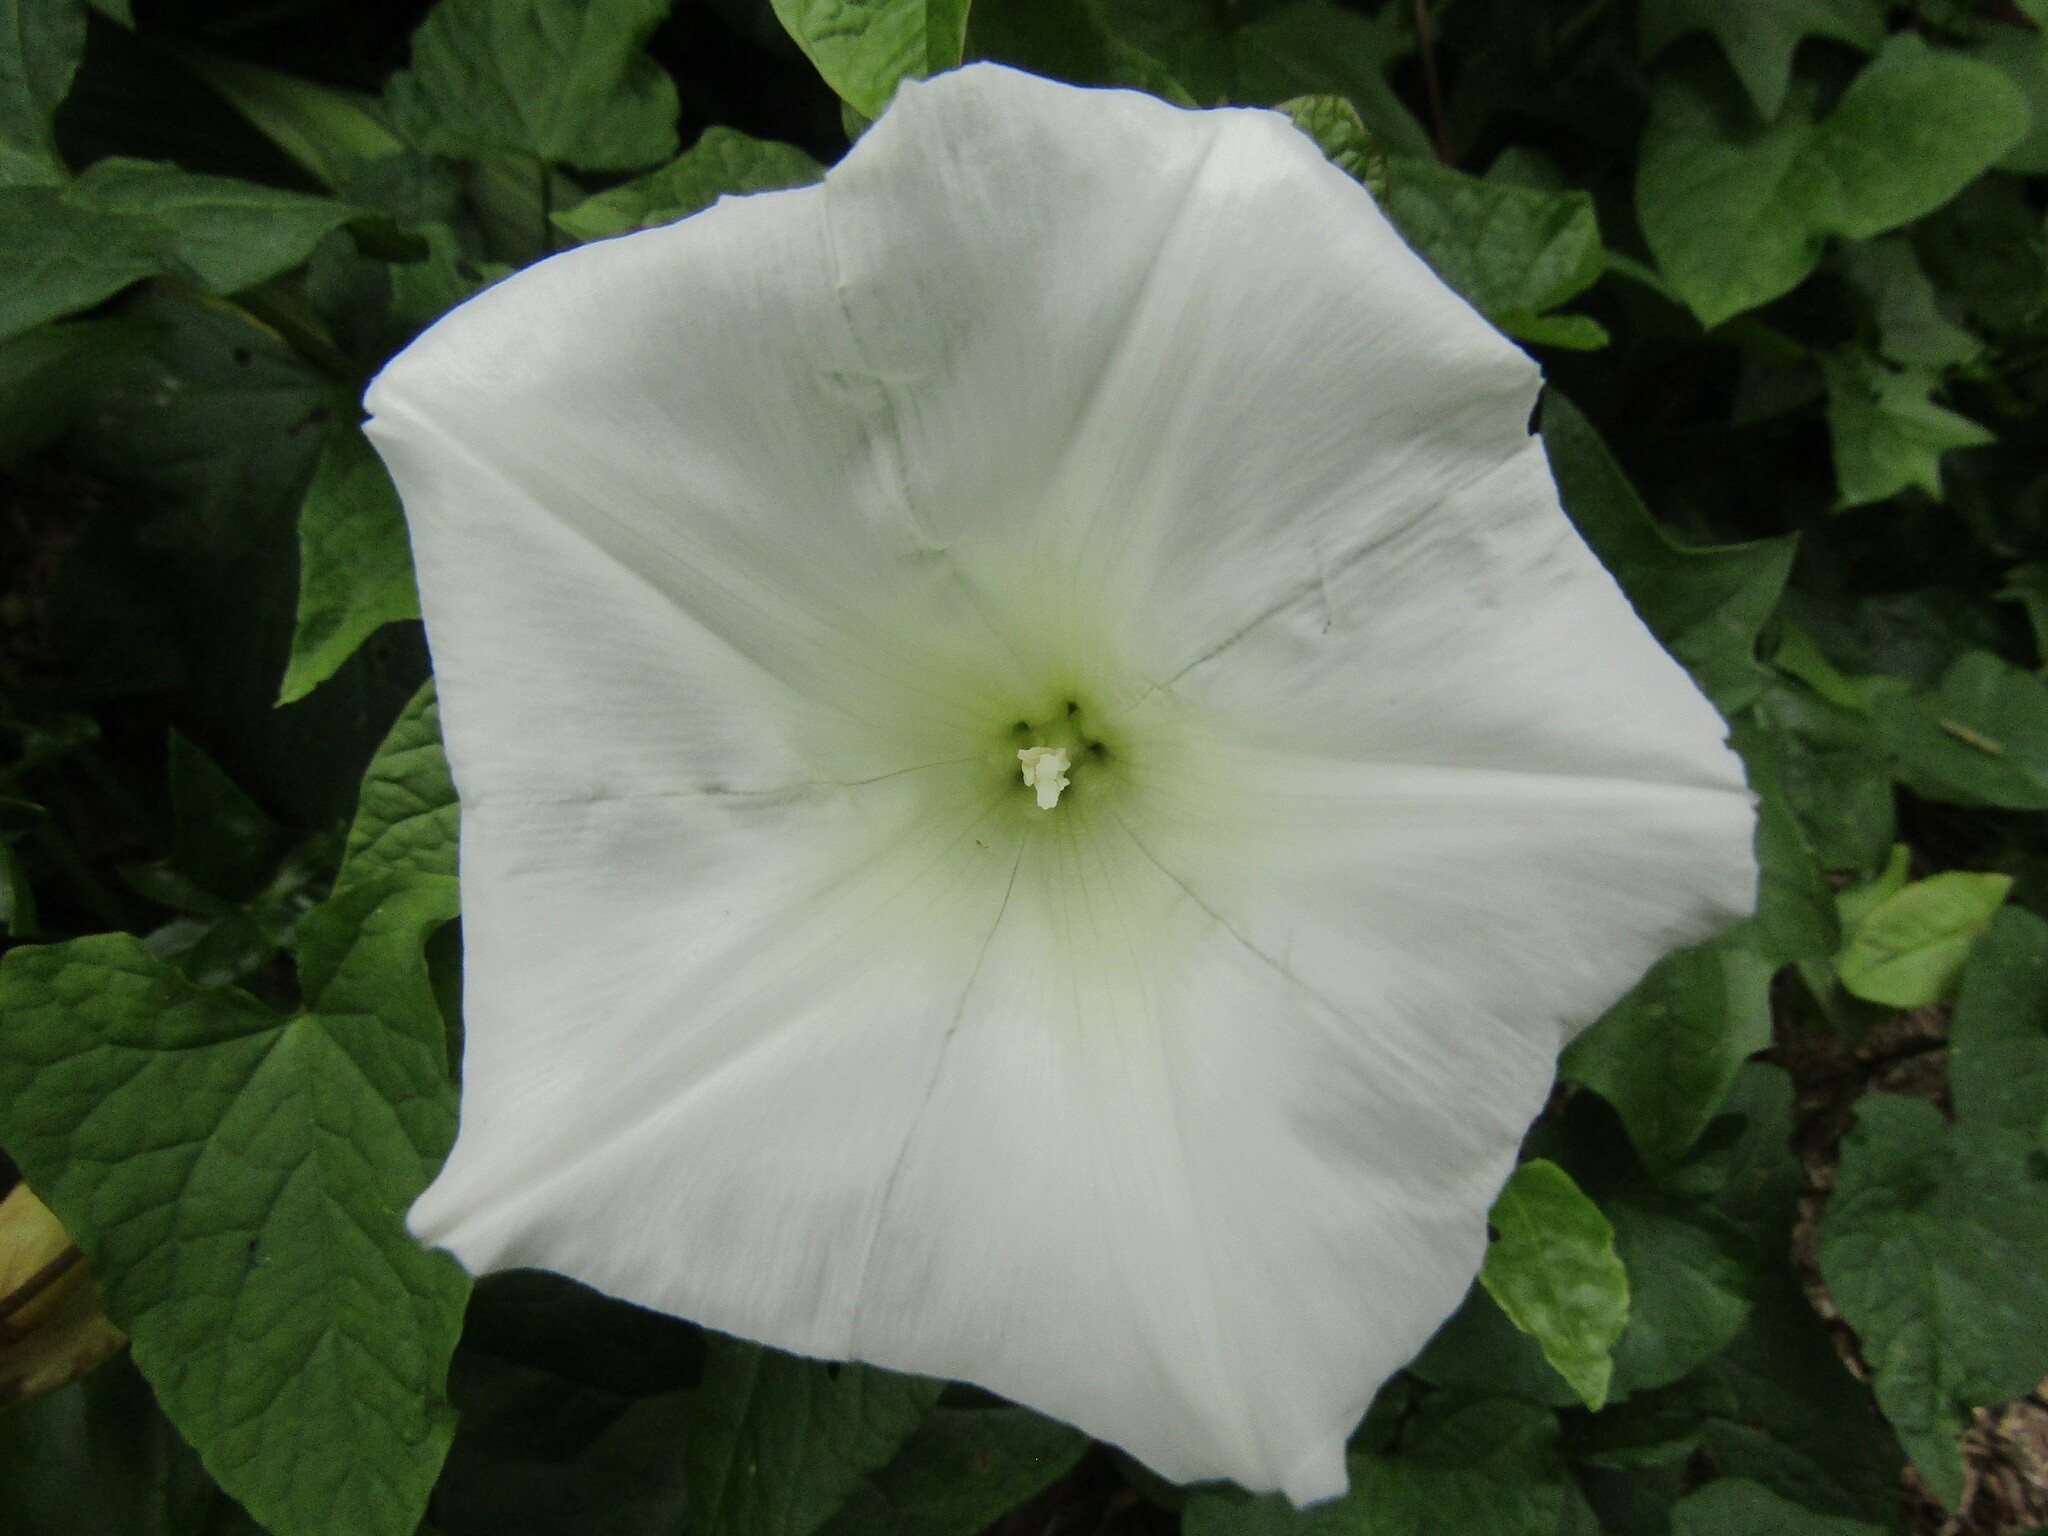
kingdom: Plantae
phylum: Tracheophyta
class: Magnoliopsida
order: Solanales
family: Convolvulaceae
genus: Calystegia
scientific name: Calystegia sepium
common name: Hedge bindweed
